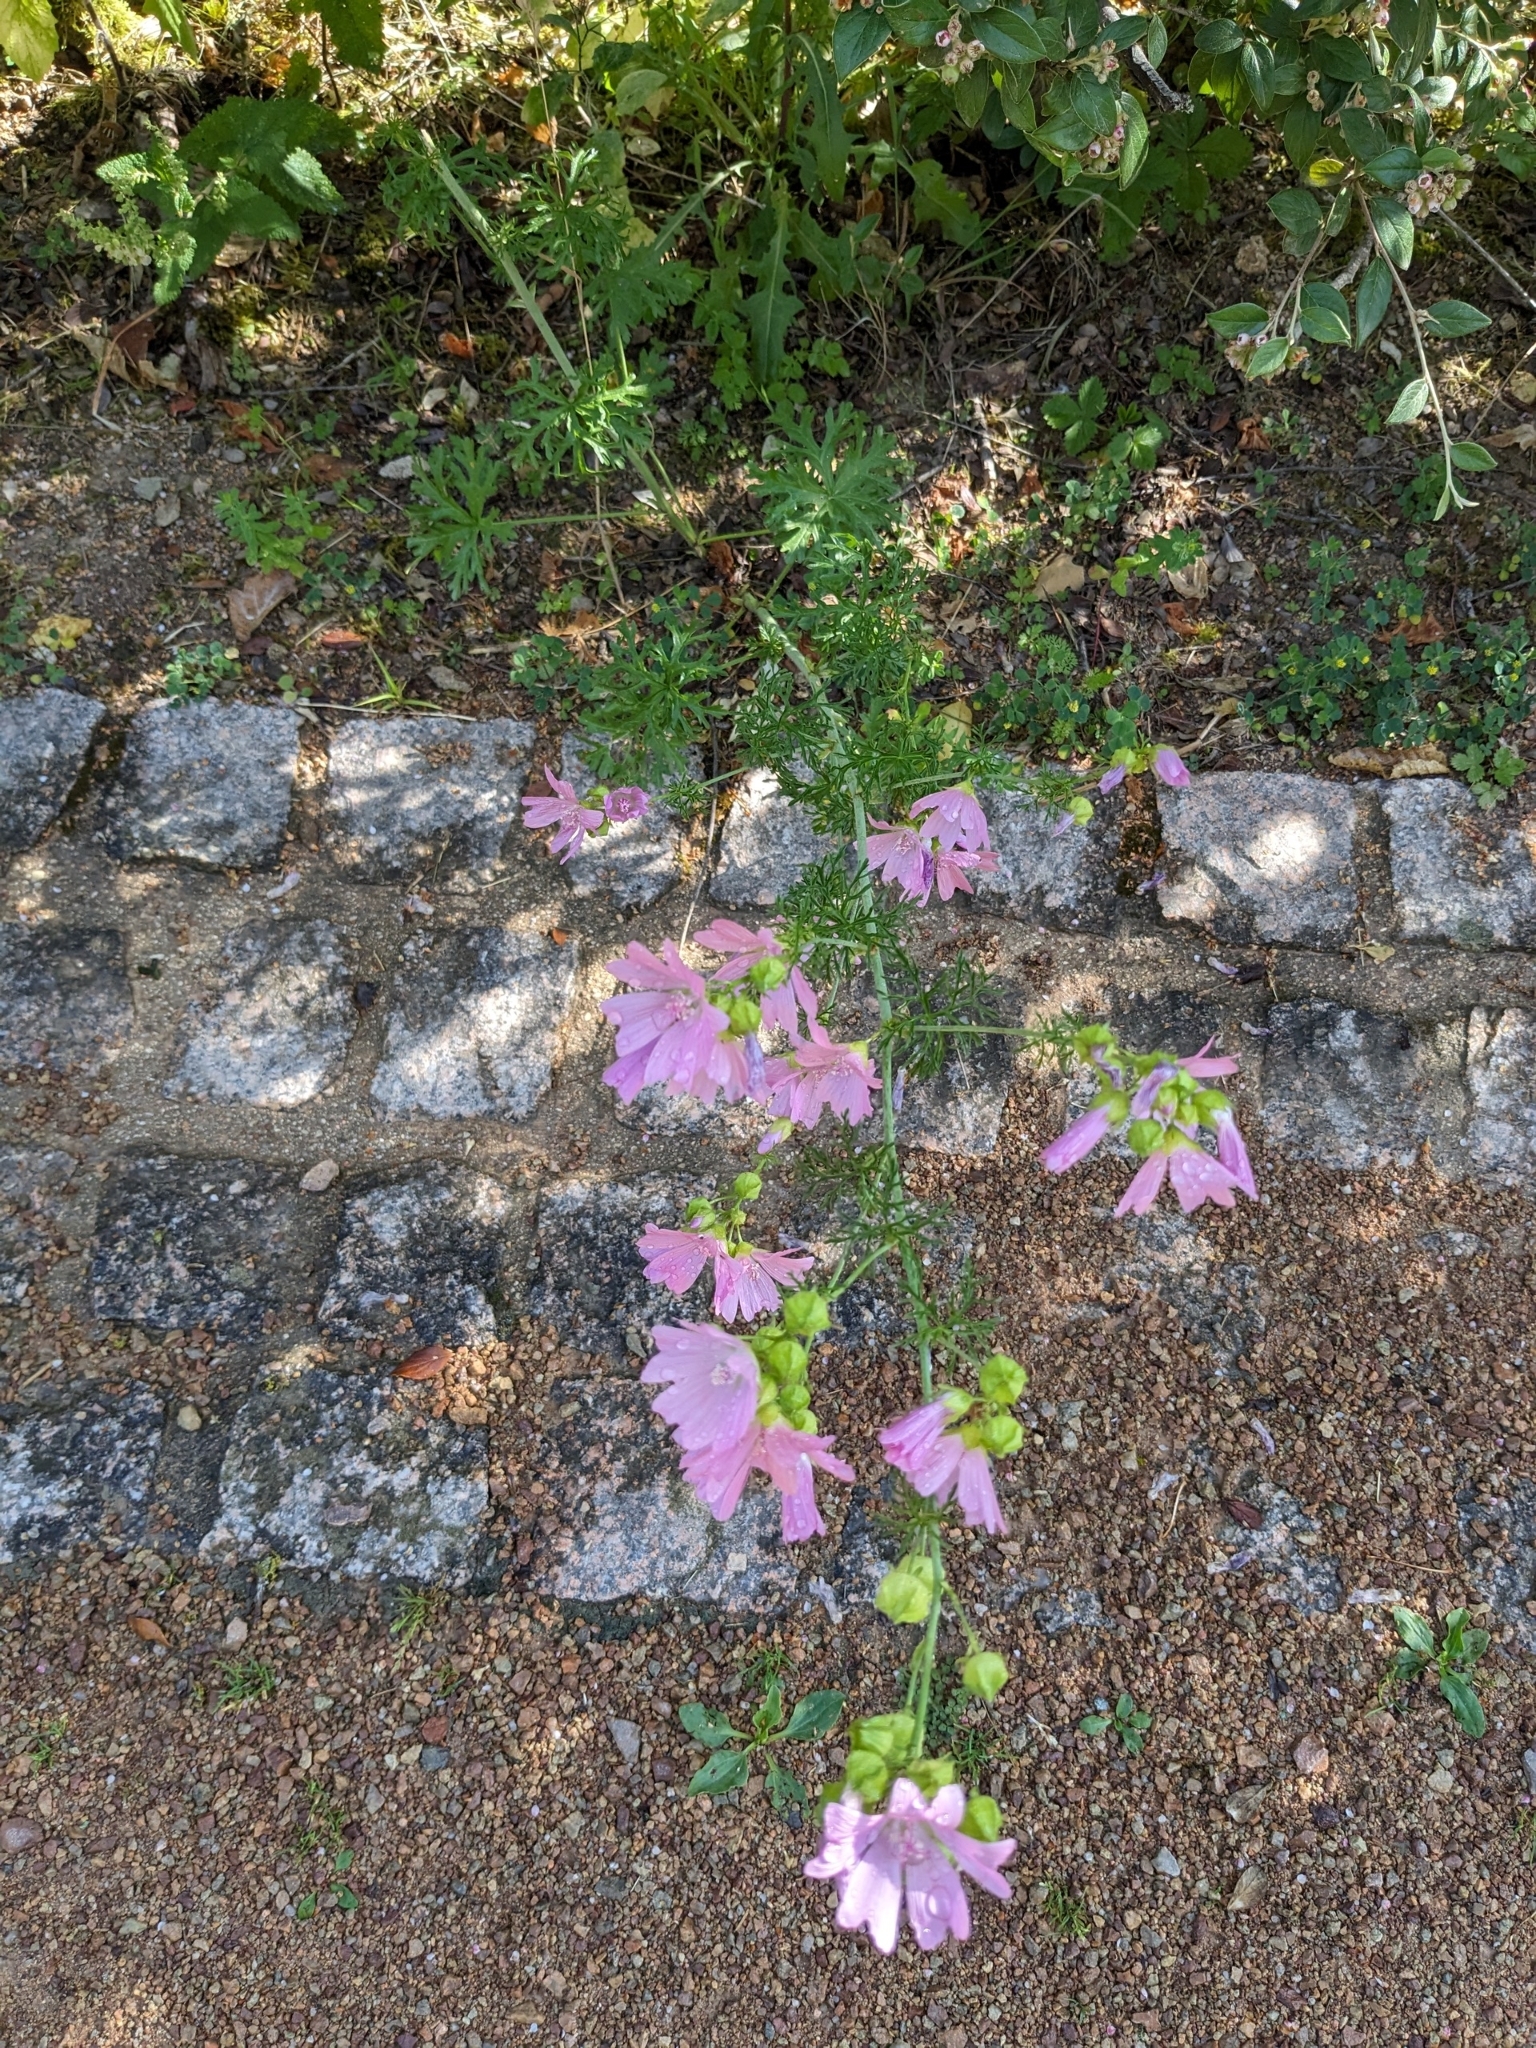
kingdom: Plantae
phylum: Tracheophyta
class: Magnoliopsida
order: Malvales
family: Malvaceae
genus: Malva
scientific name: Malva moschata
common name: Musk mallow
